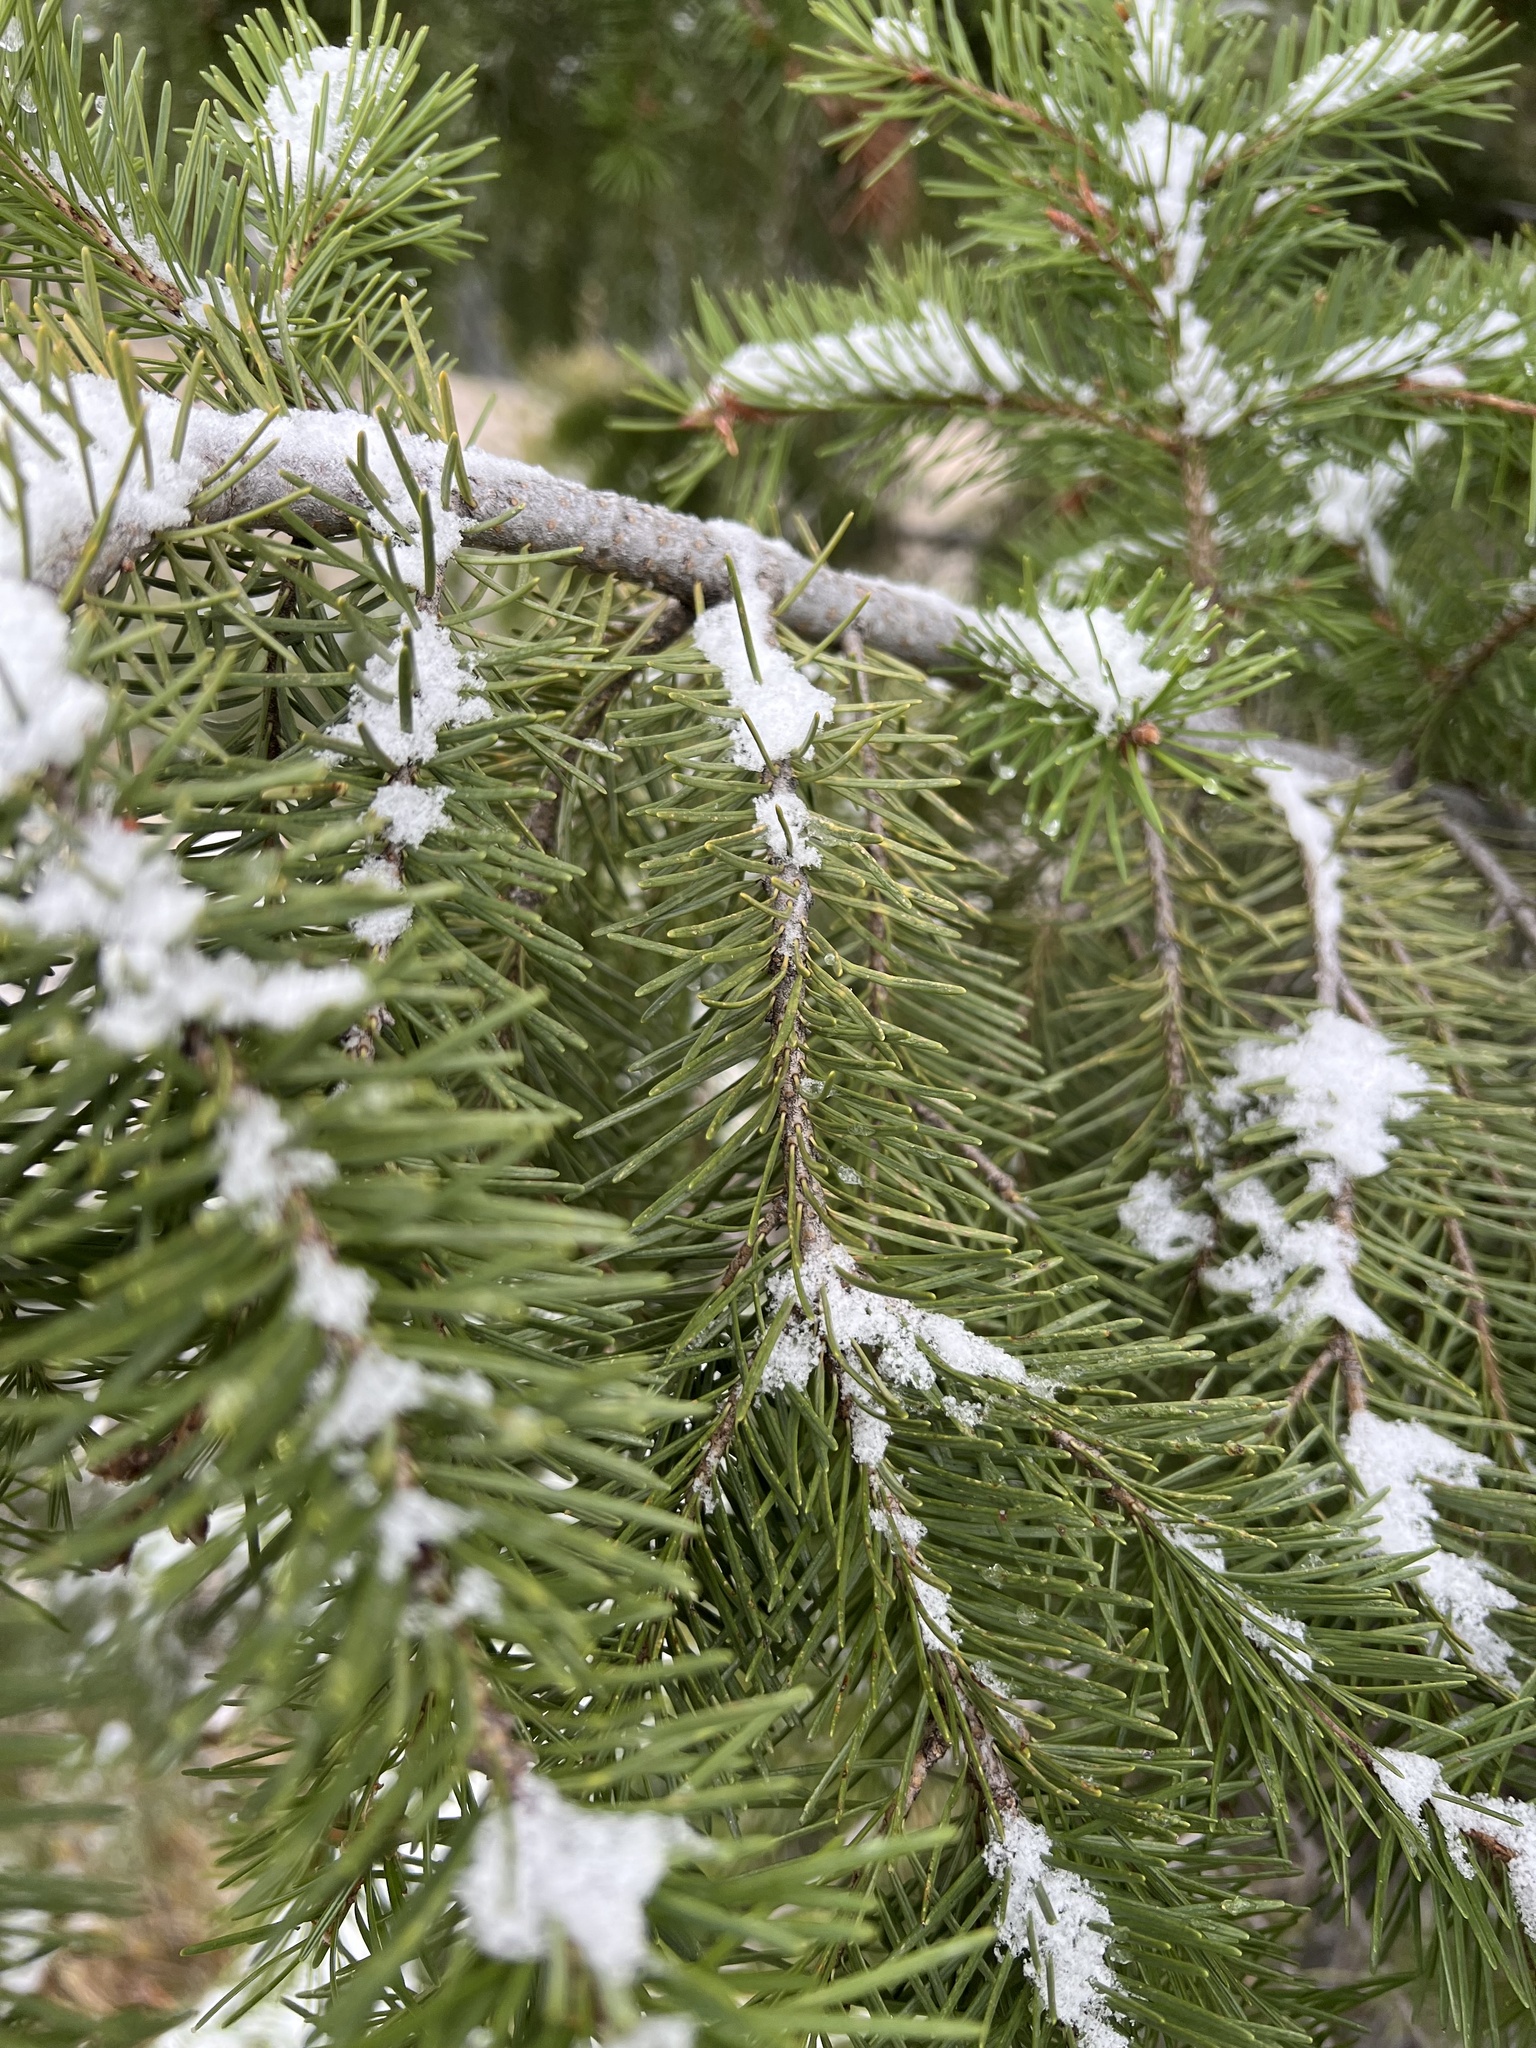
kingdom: Plantae
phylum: Tracheophyta
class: Pinopsida
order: Pinales
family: Pinaceae
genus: Pseudotsuga
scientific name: Pseudotsuga menziesii
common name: Douglas fir
